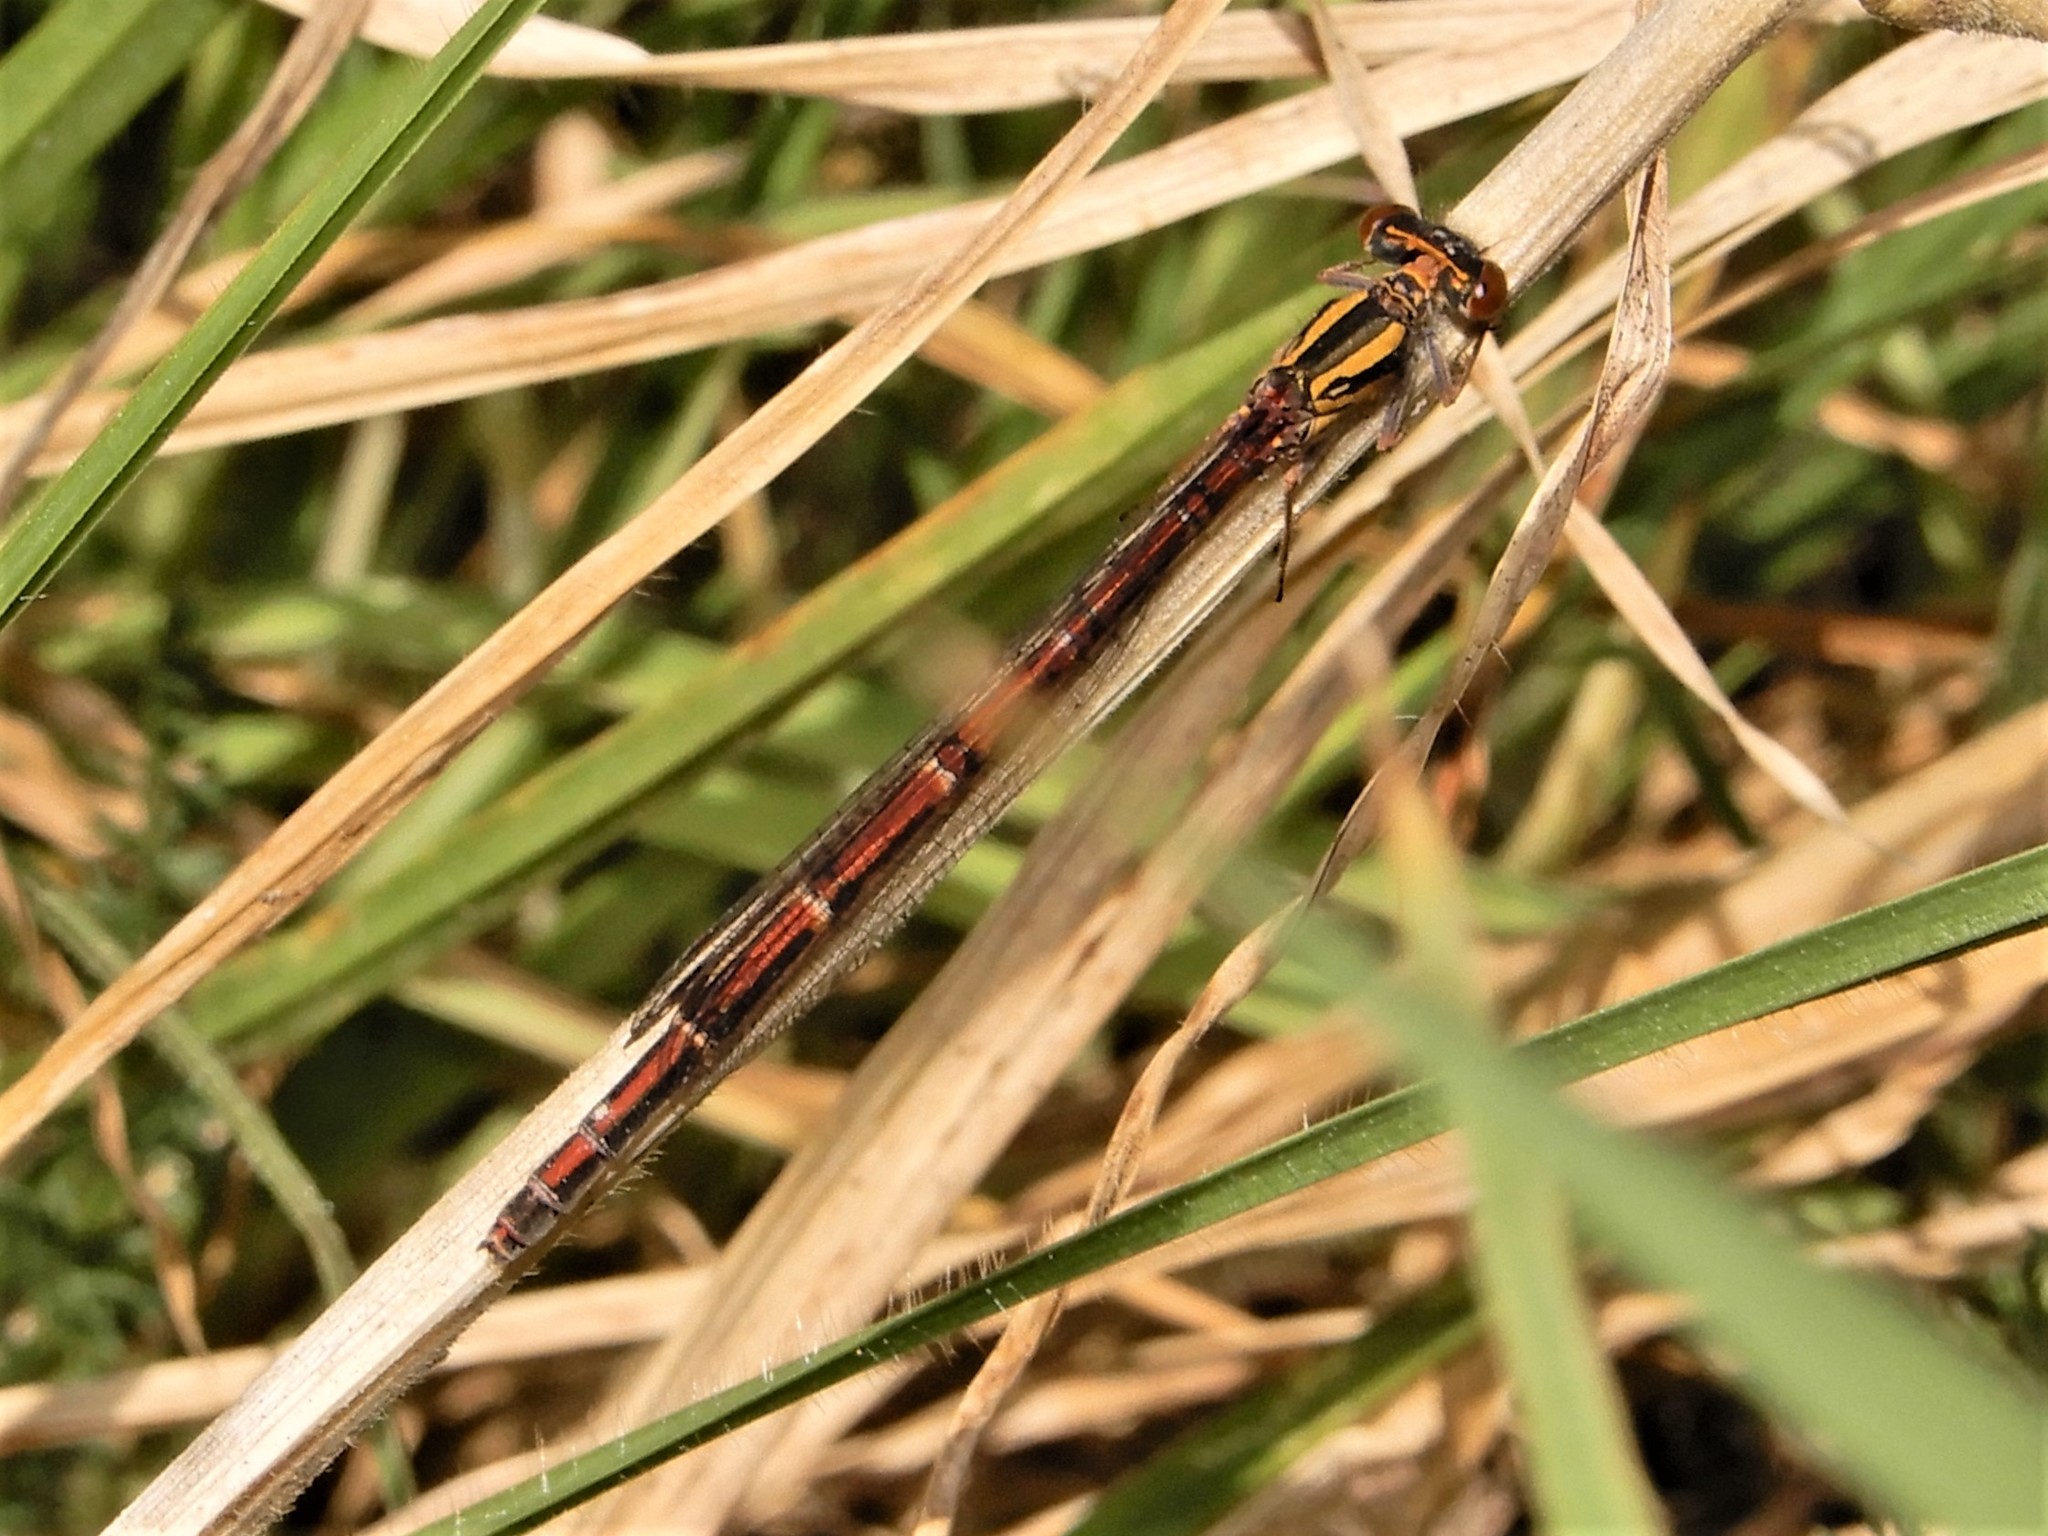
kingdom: Animalia
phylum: Arthropoda
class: Insecta
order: Odonata
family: Coenagrionidae
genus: Xanthocnemis
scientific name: Xanthocnemis zealandica
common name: Common redcoat damselfly
